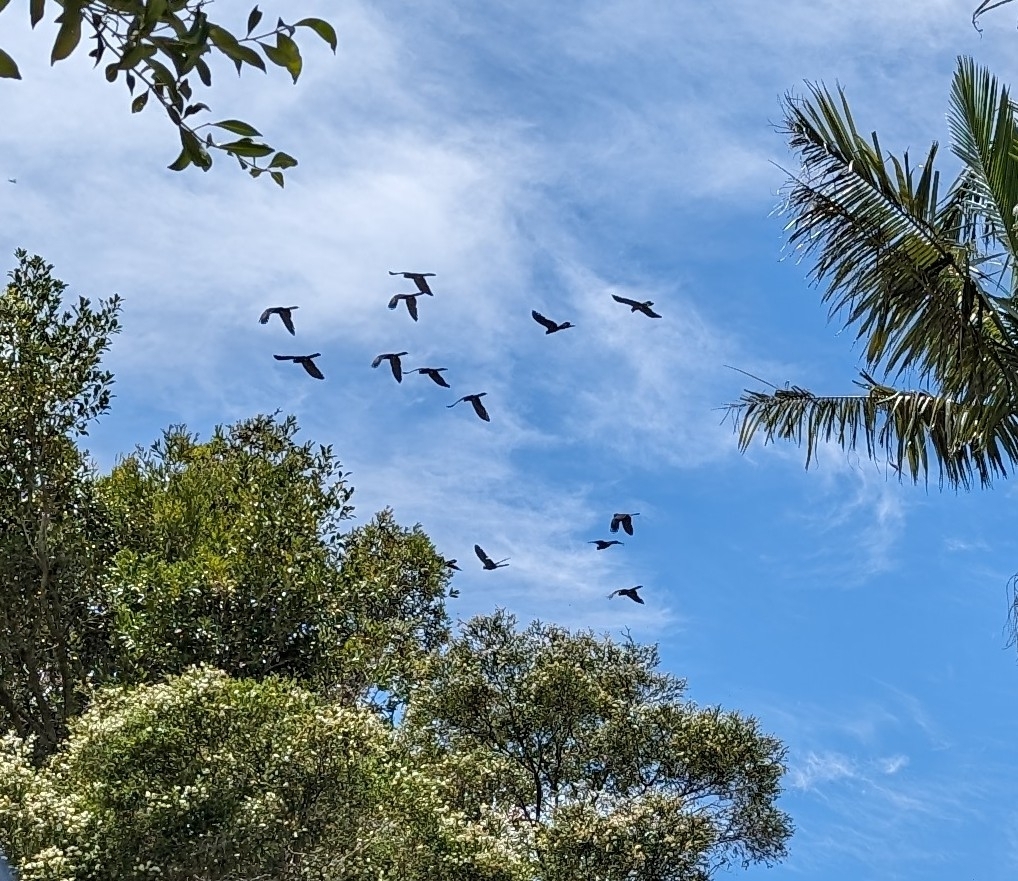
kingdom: Animalia
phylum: Chordata
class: Aves
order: Psittaciformes
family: Cacatuidae
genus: Zanda
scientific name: Zanda funerea
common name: Yellow-tailed black-cockatoo
